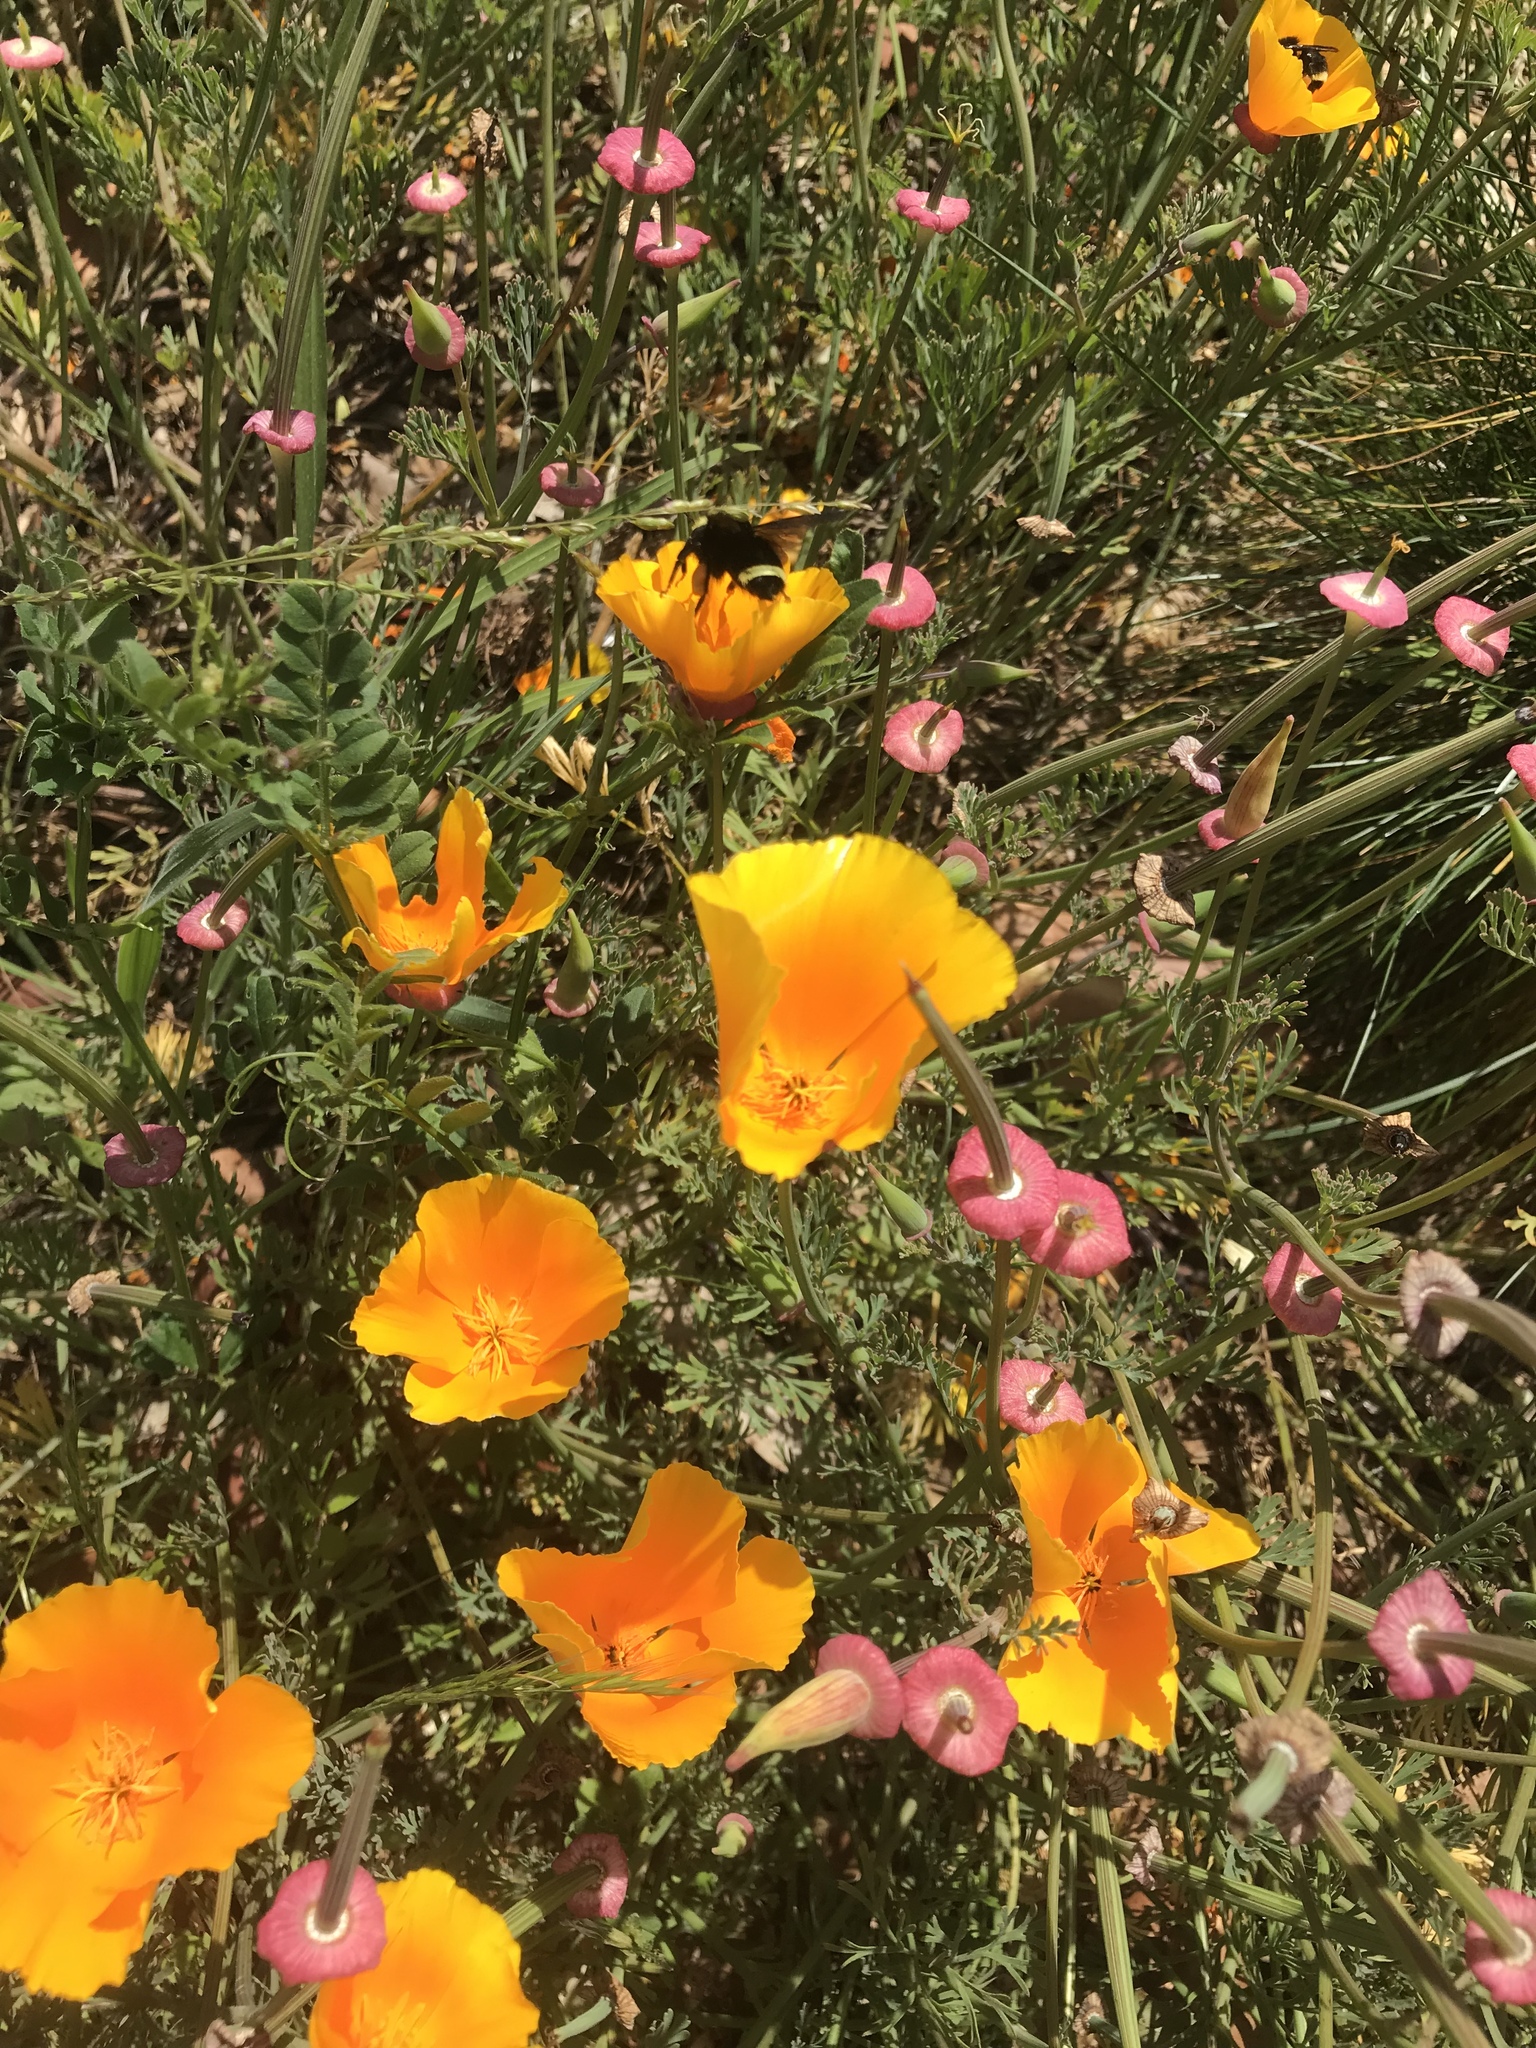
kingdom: Plantae
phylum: Tracheophyta
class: Magnoliopsida
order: Ranunculales
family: Papaveraceae
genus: Eschscholzia
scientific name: Eschscholzia californica
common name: California poppy
